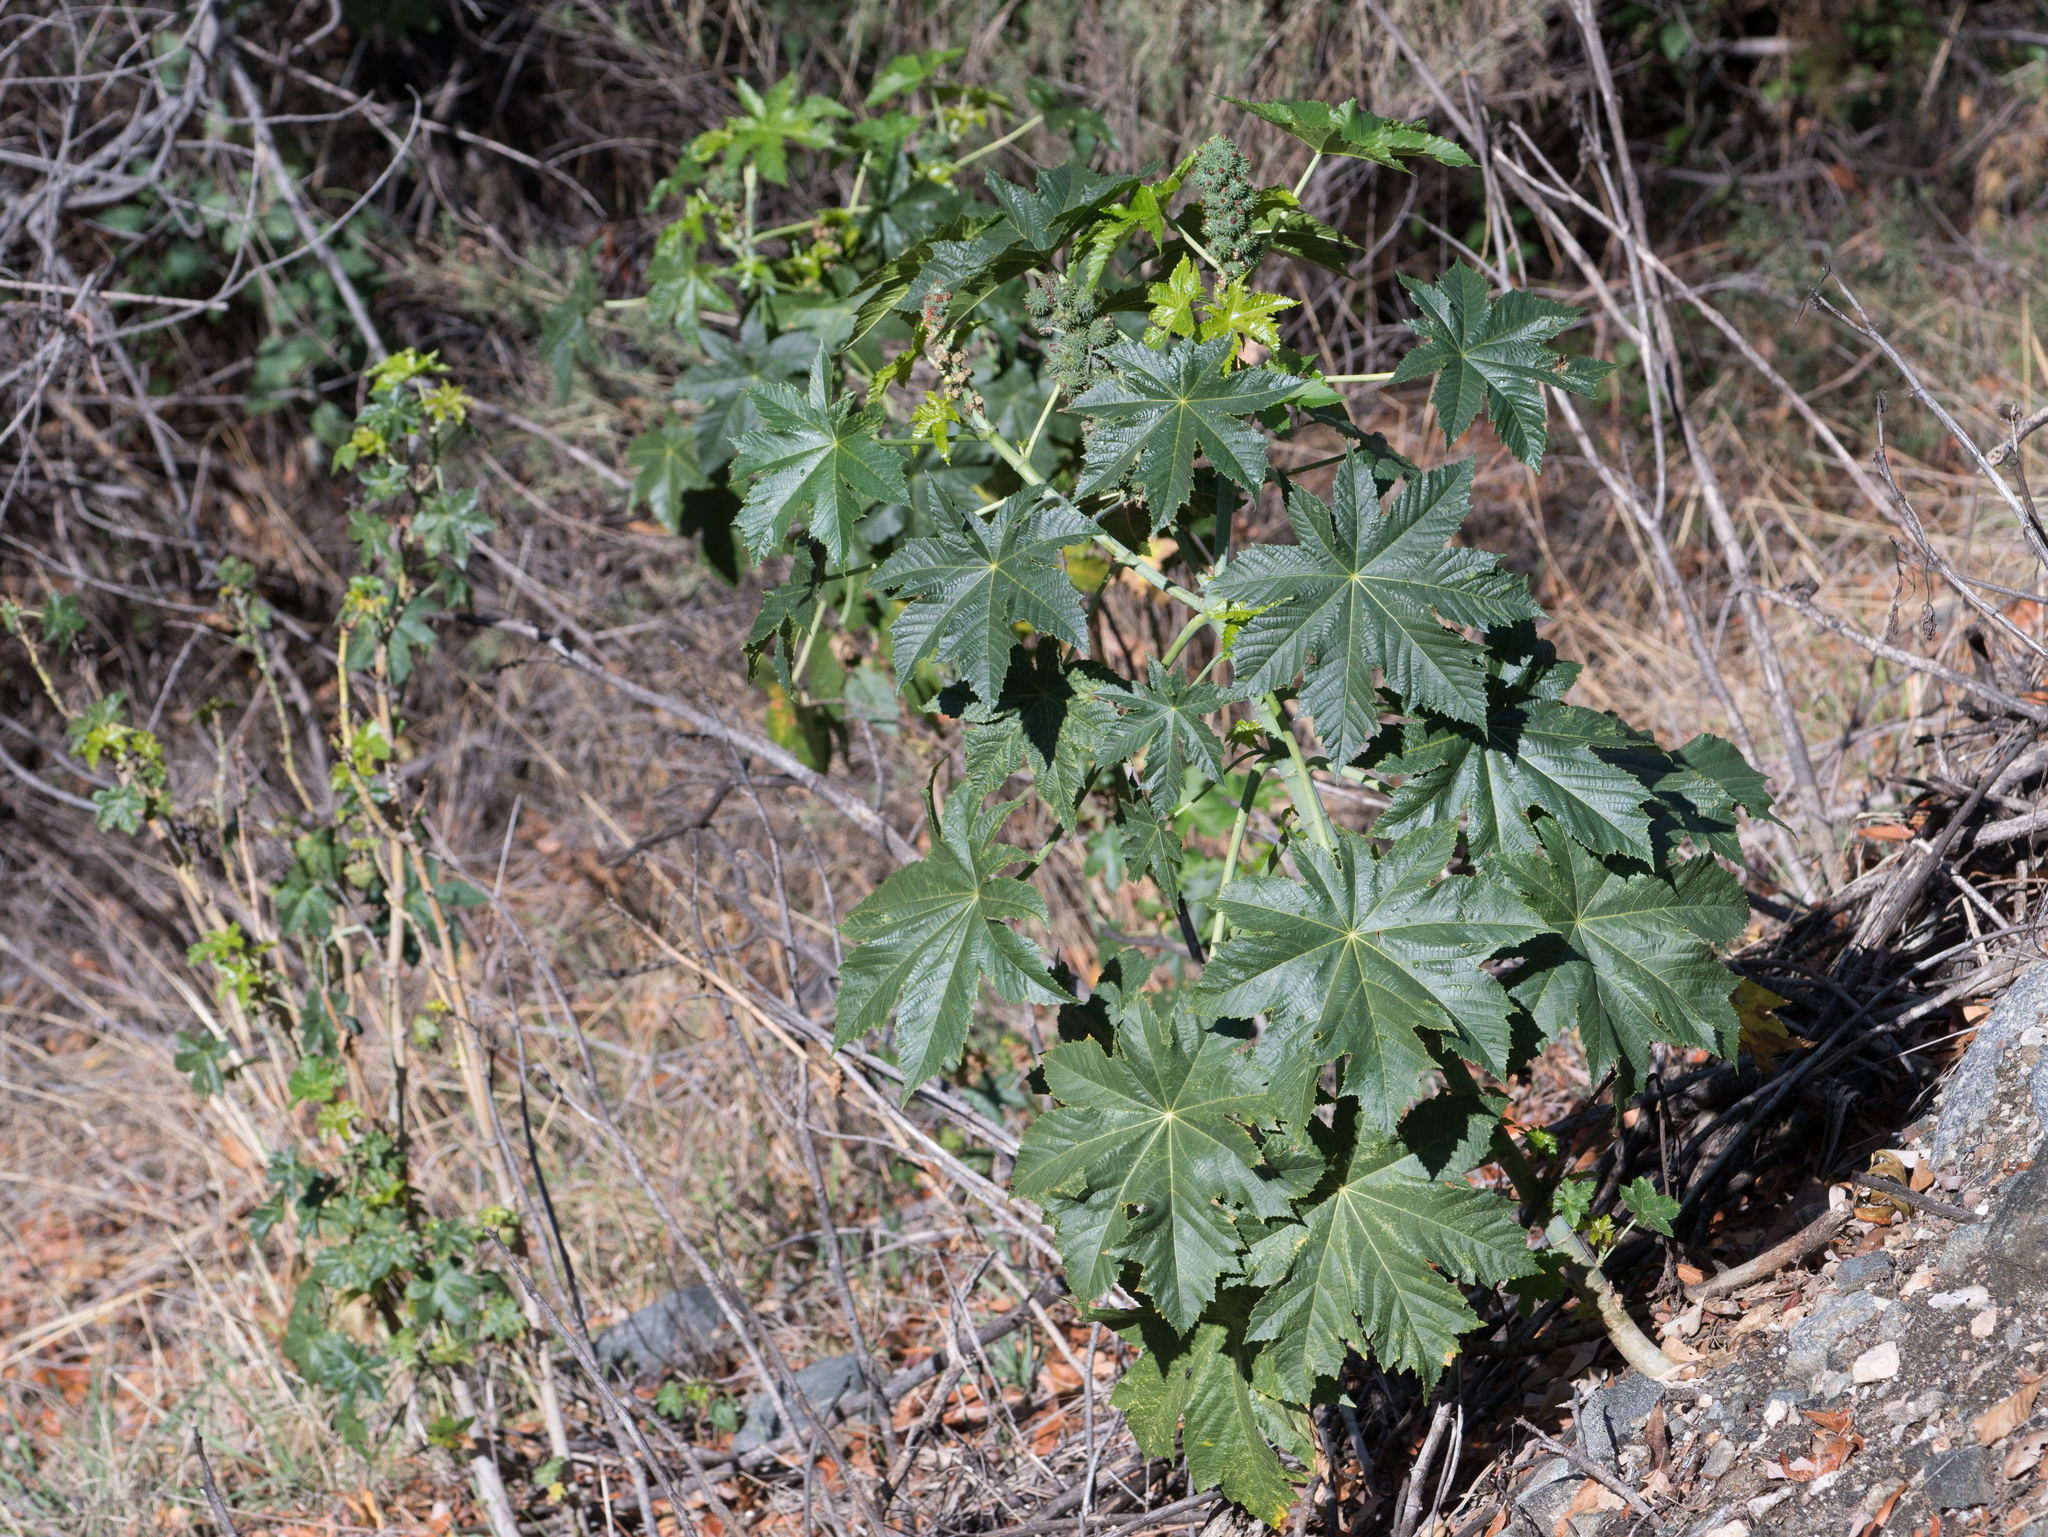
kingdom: Plantae
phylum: Tracheophyta
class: Magnoliopsida
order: Malpighiales
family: Euphorbiaceae
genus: Ricinus
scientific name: Ricinus communis
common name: Castor-oil-plant
